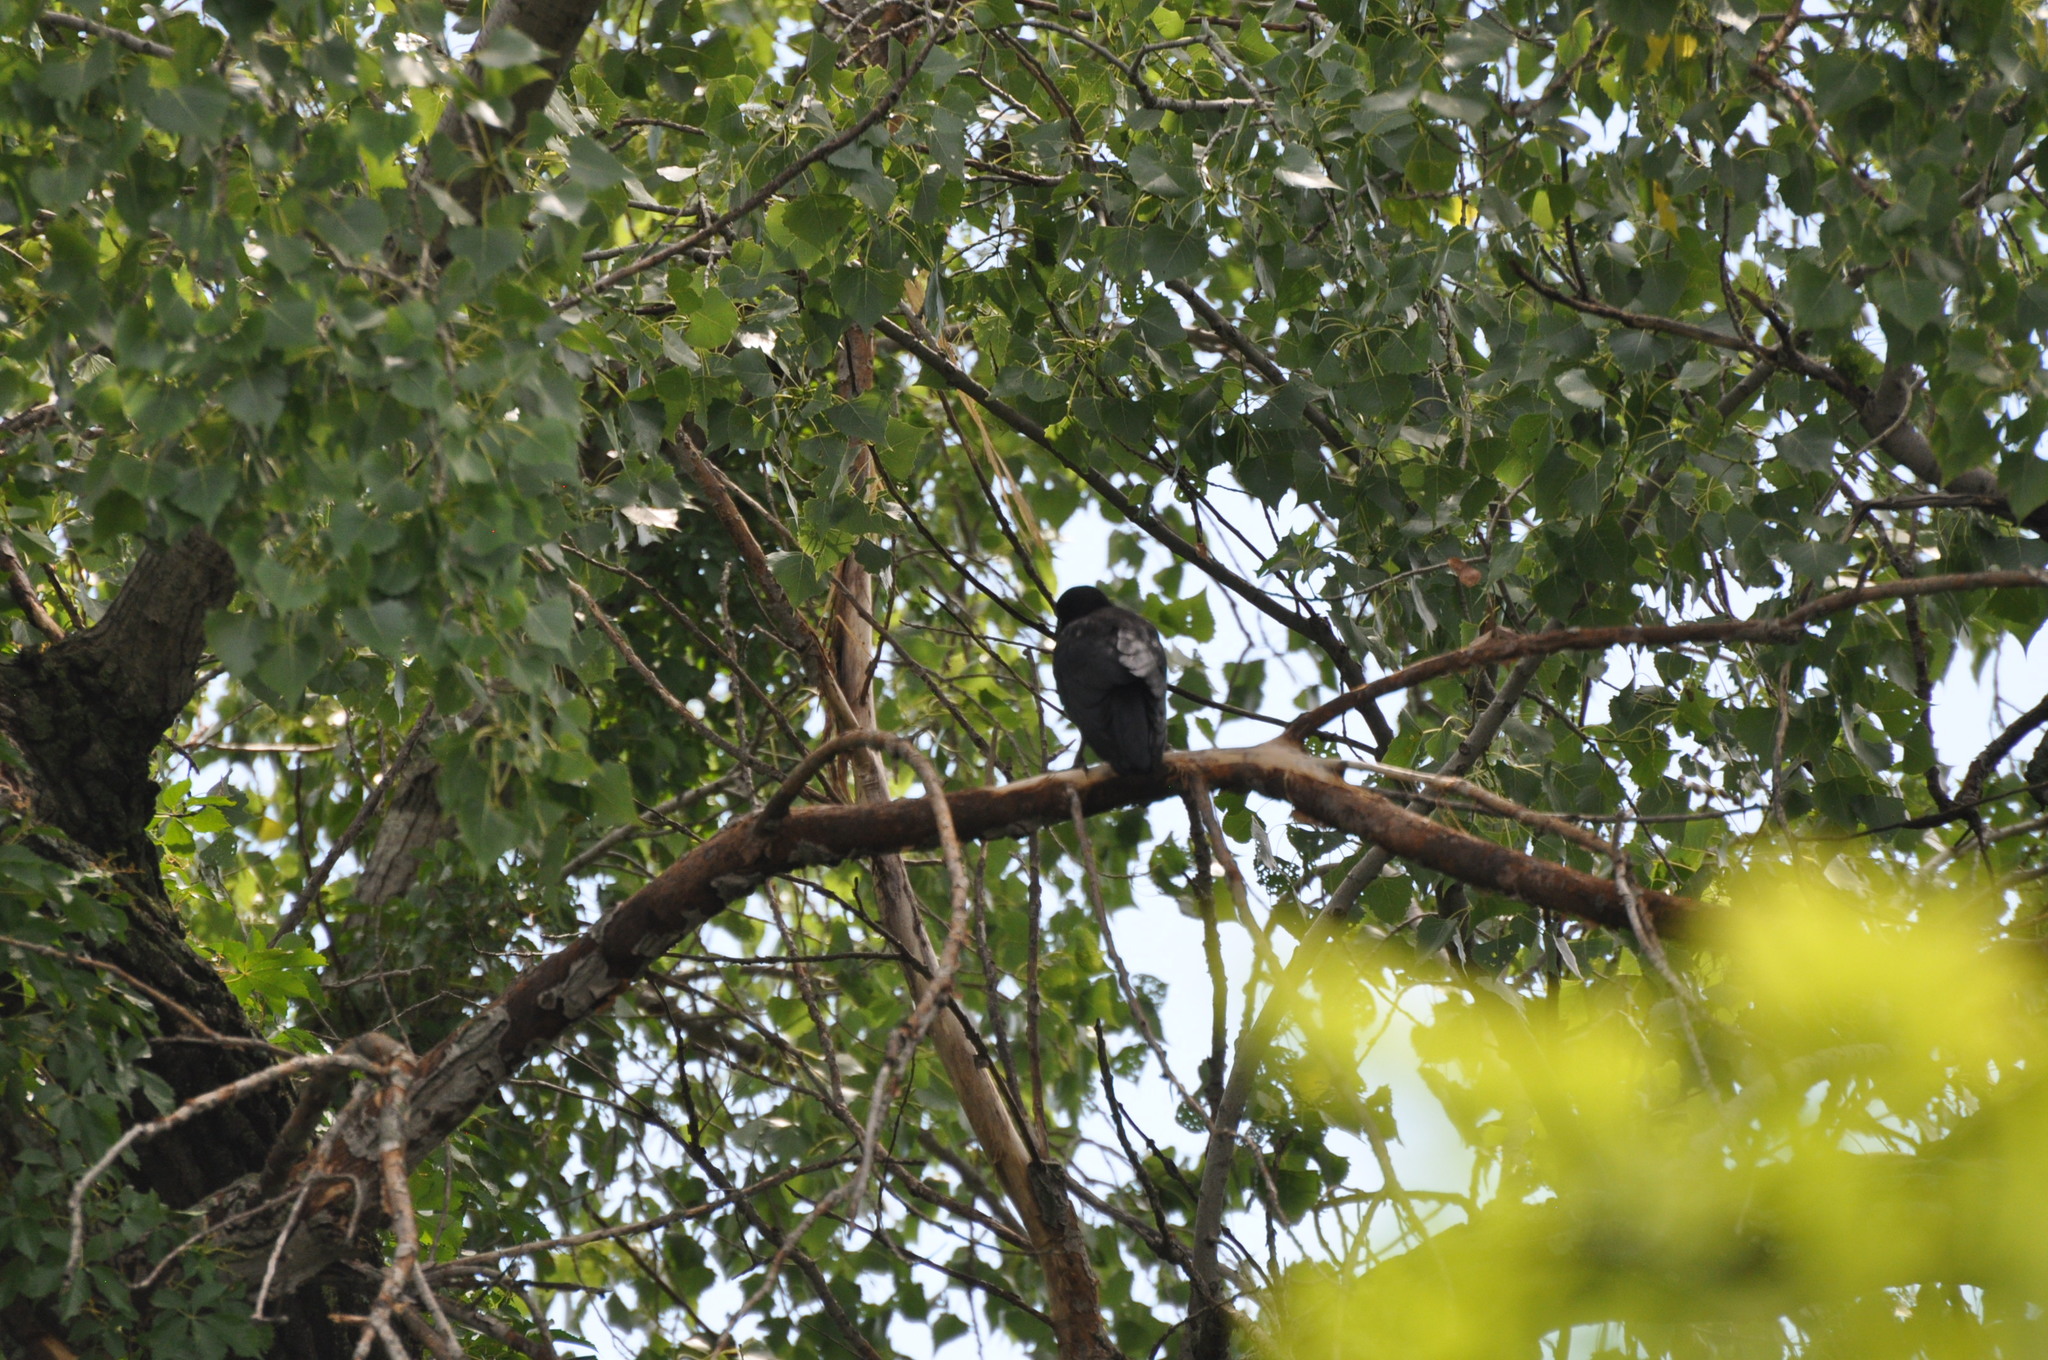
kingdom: Animalia
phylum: Chordata
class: Aves
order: Passeriformes
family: Corvidae
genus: Corvus
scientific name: Corvus brachyrhynchos
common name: American crow
